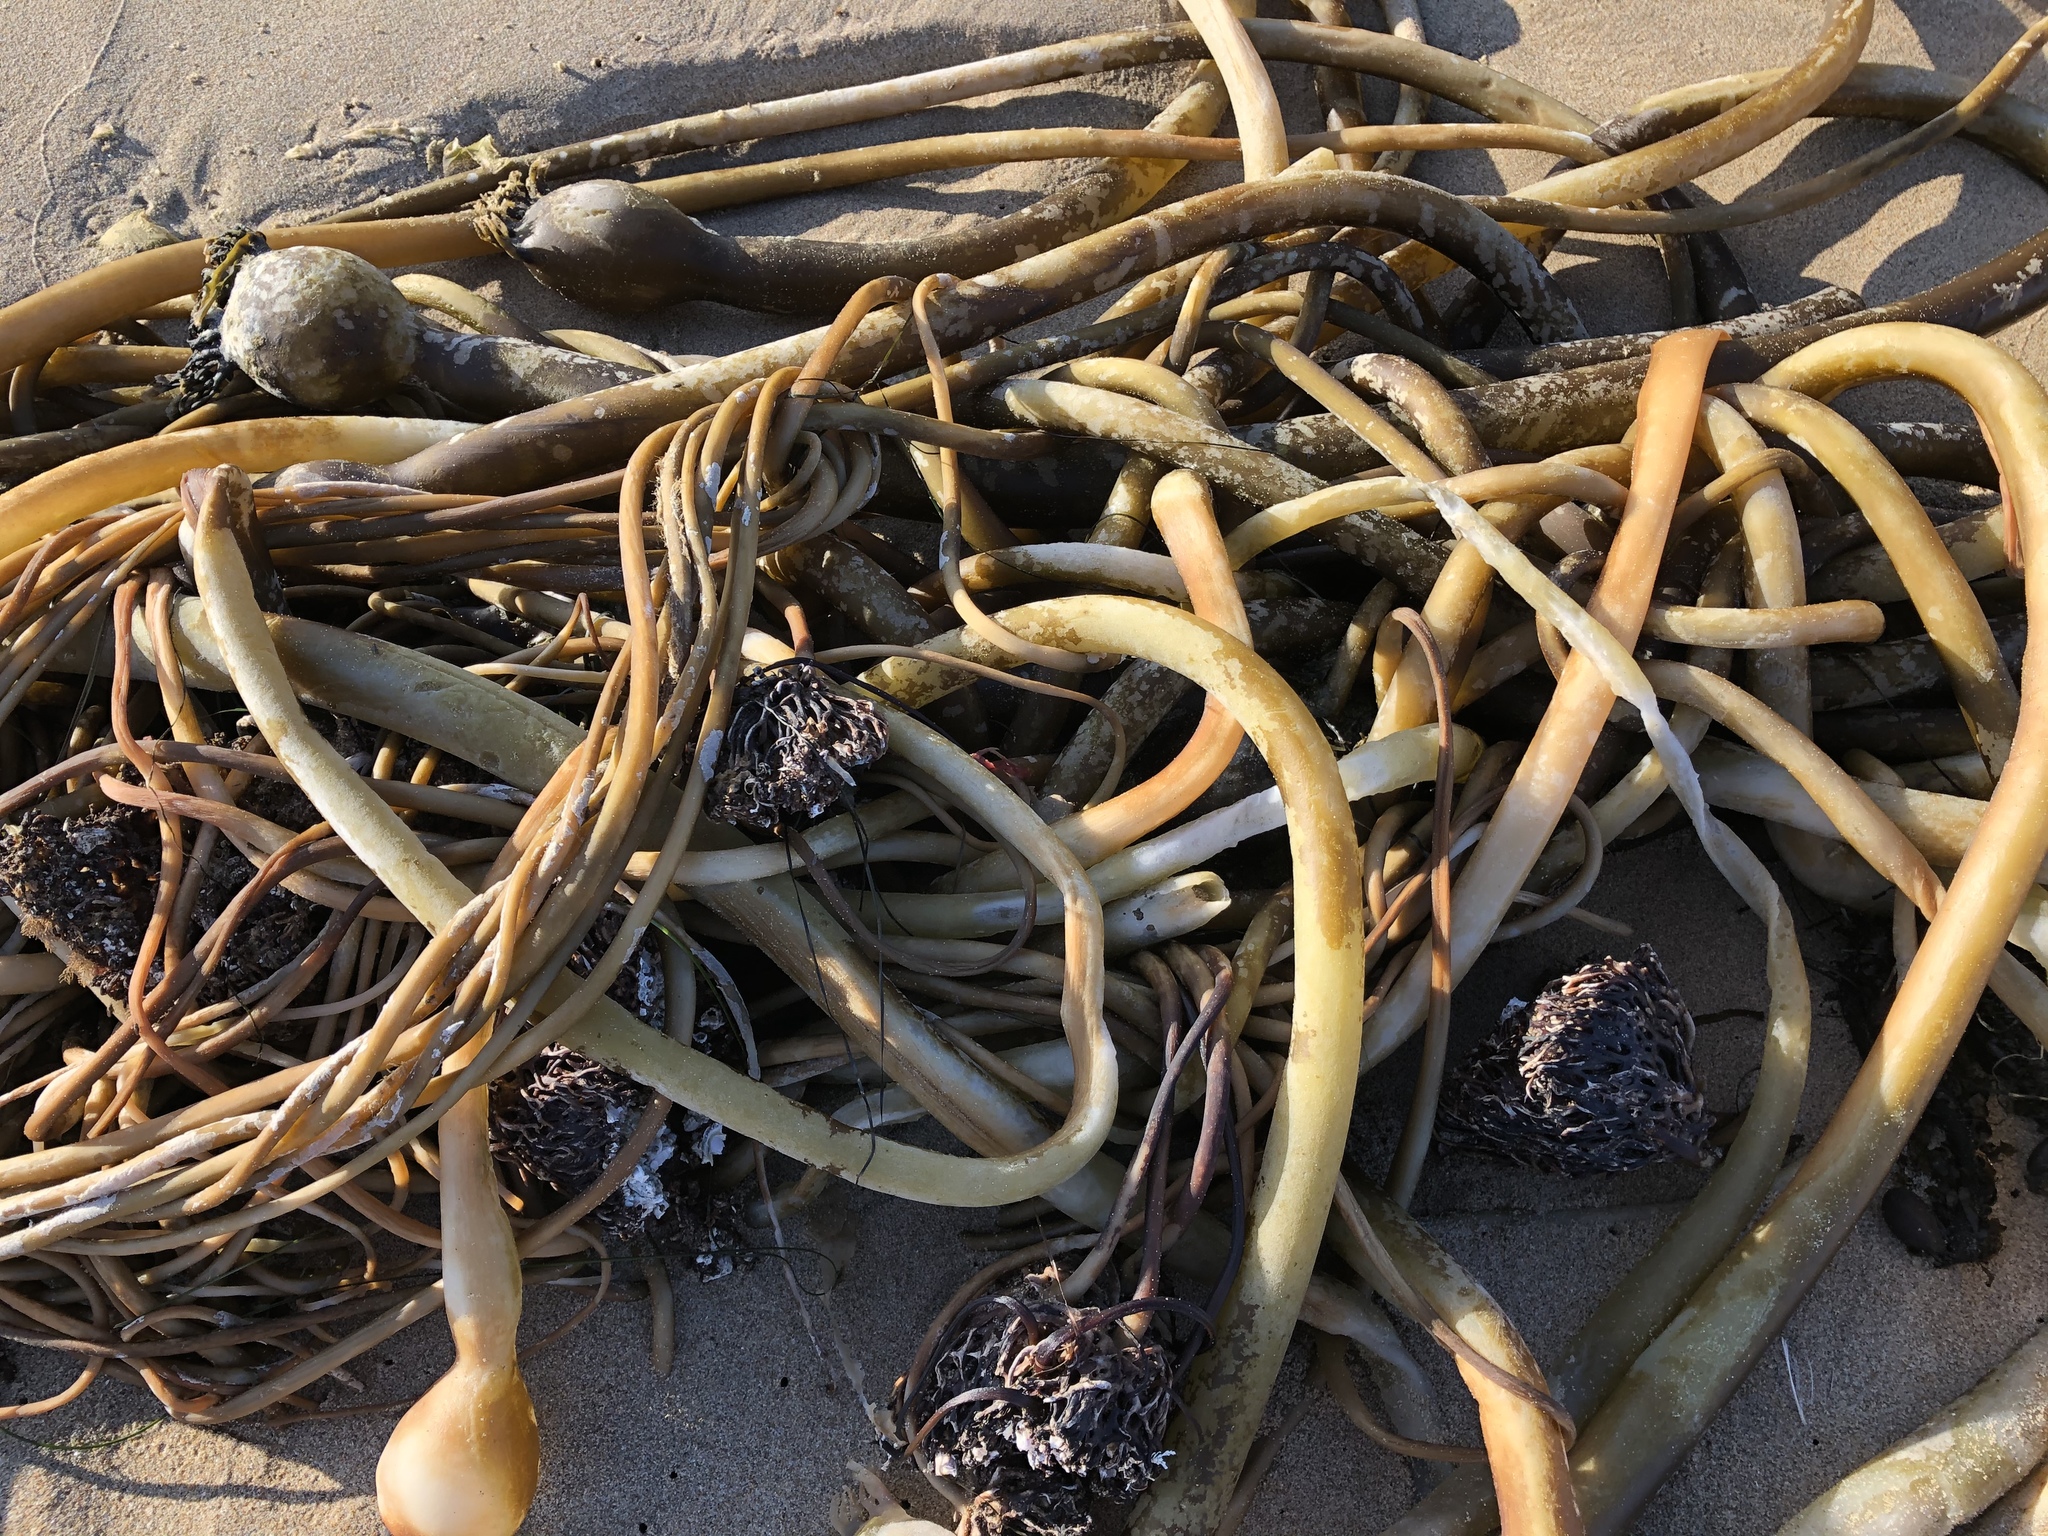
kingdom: Chromista
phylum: Ochrophyta
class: Phaeophyceae
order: Laminariales
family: Laminariaceae
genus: Nereocystis
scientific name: Nereocystis luetkeana
